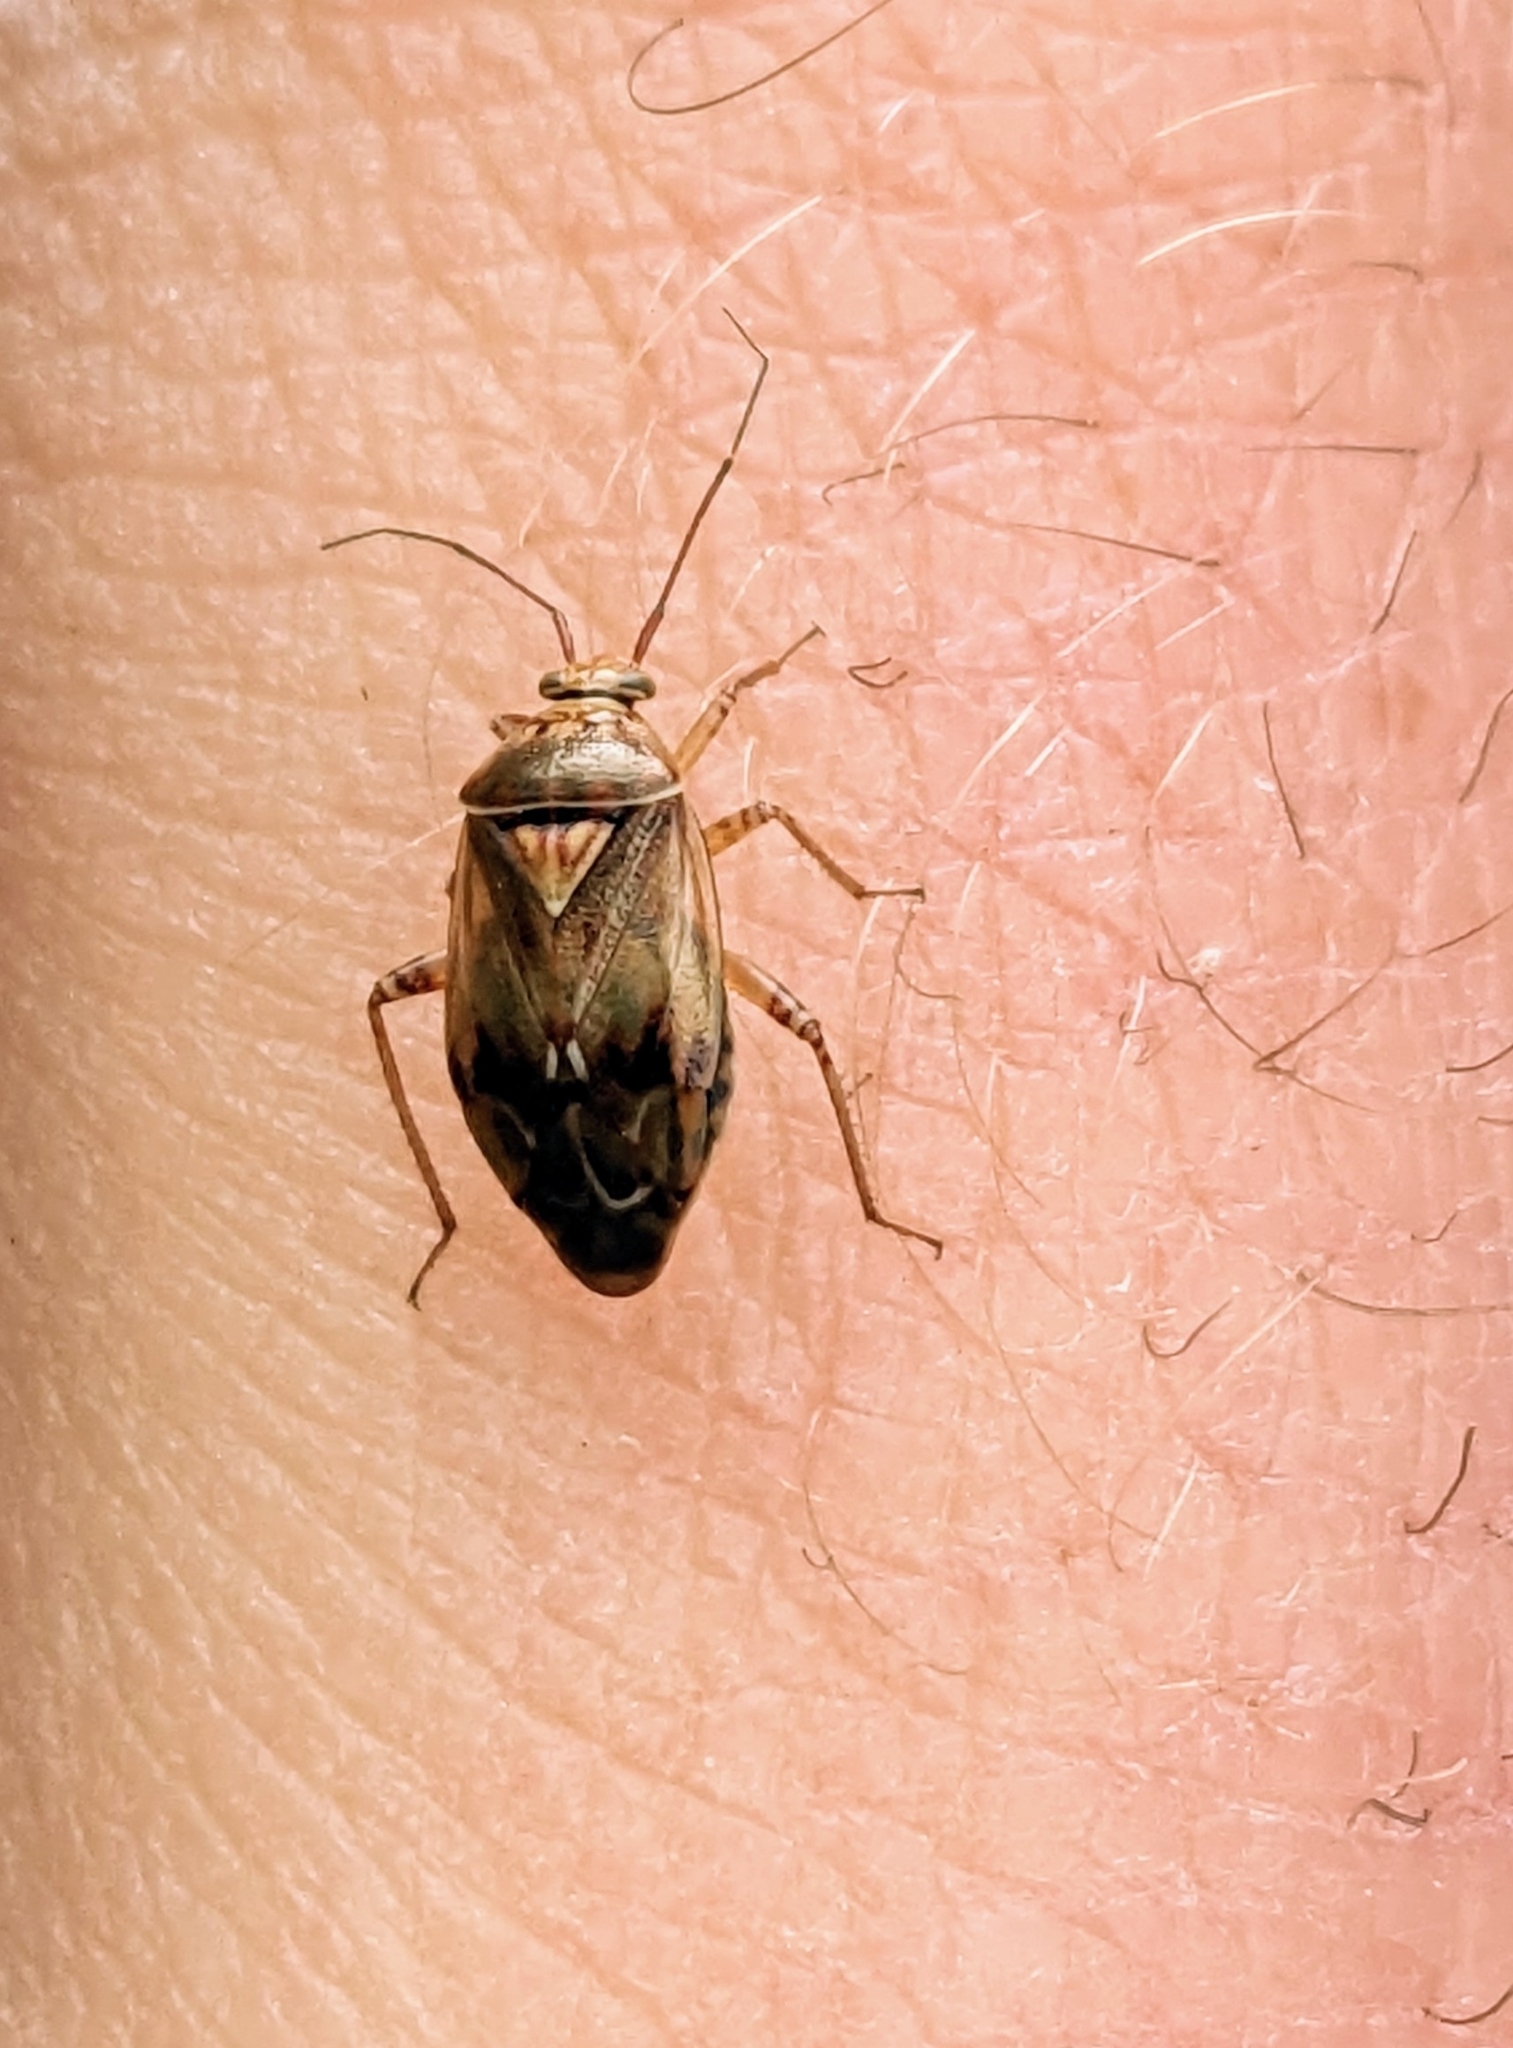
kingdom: Animalia
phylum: Arthropoda
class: Insecta
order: Hemiptera
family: Miridae
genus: Lygus
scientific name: Lygus lineolaris
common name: North american tarnished plant bug
